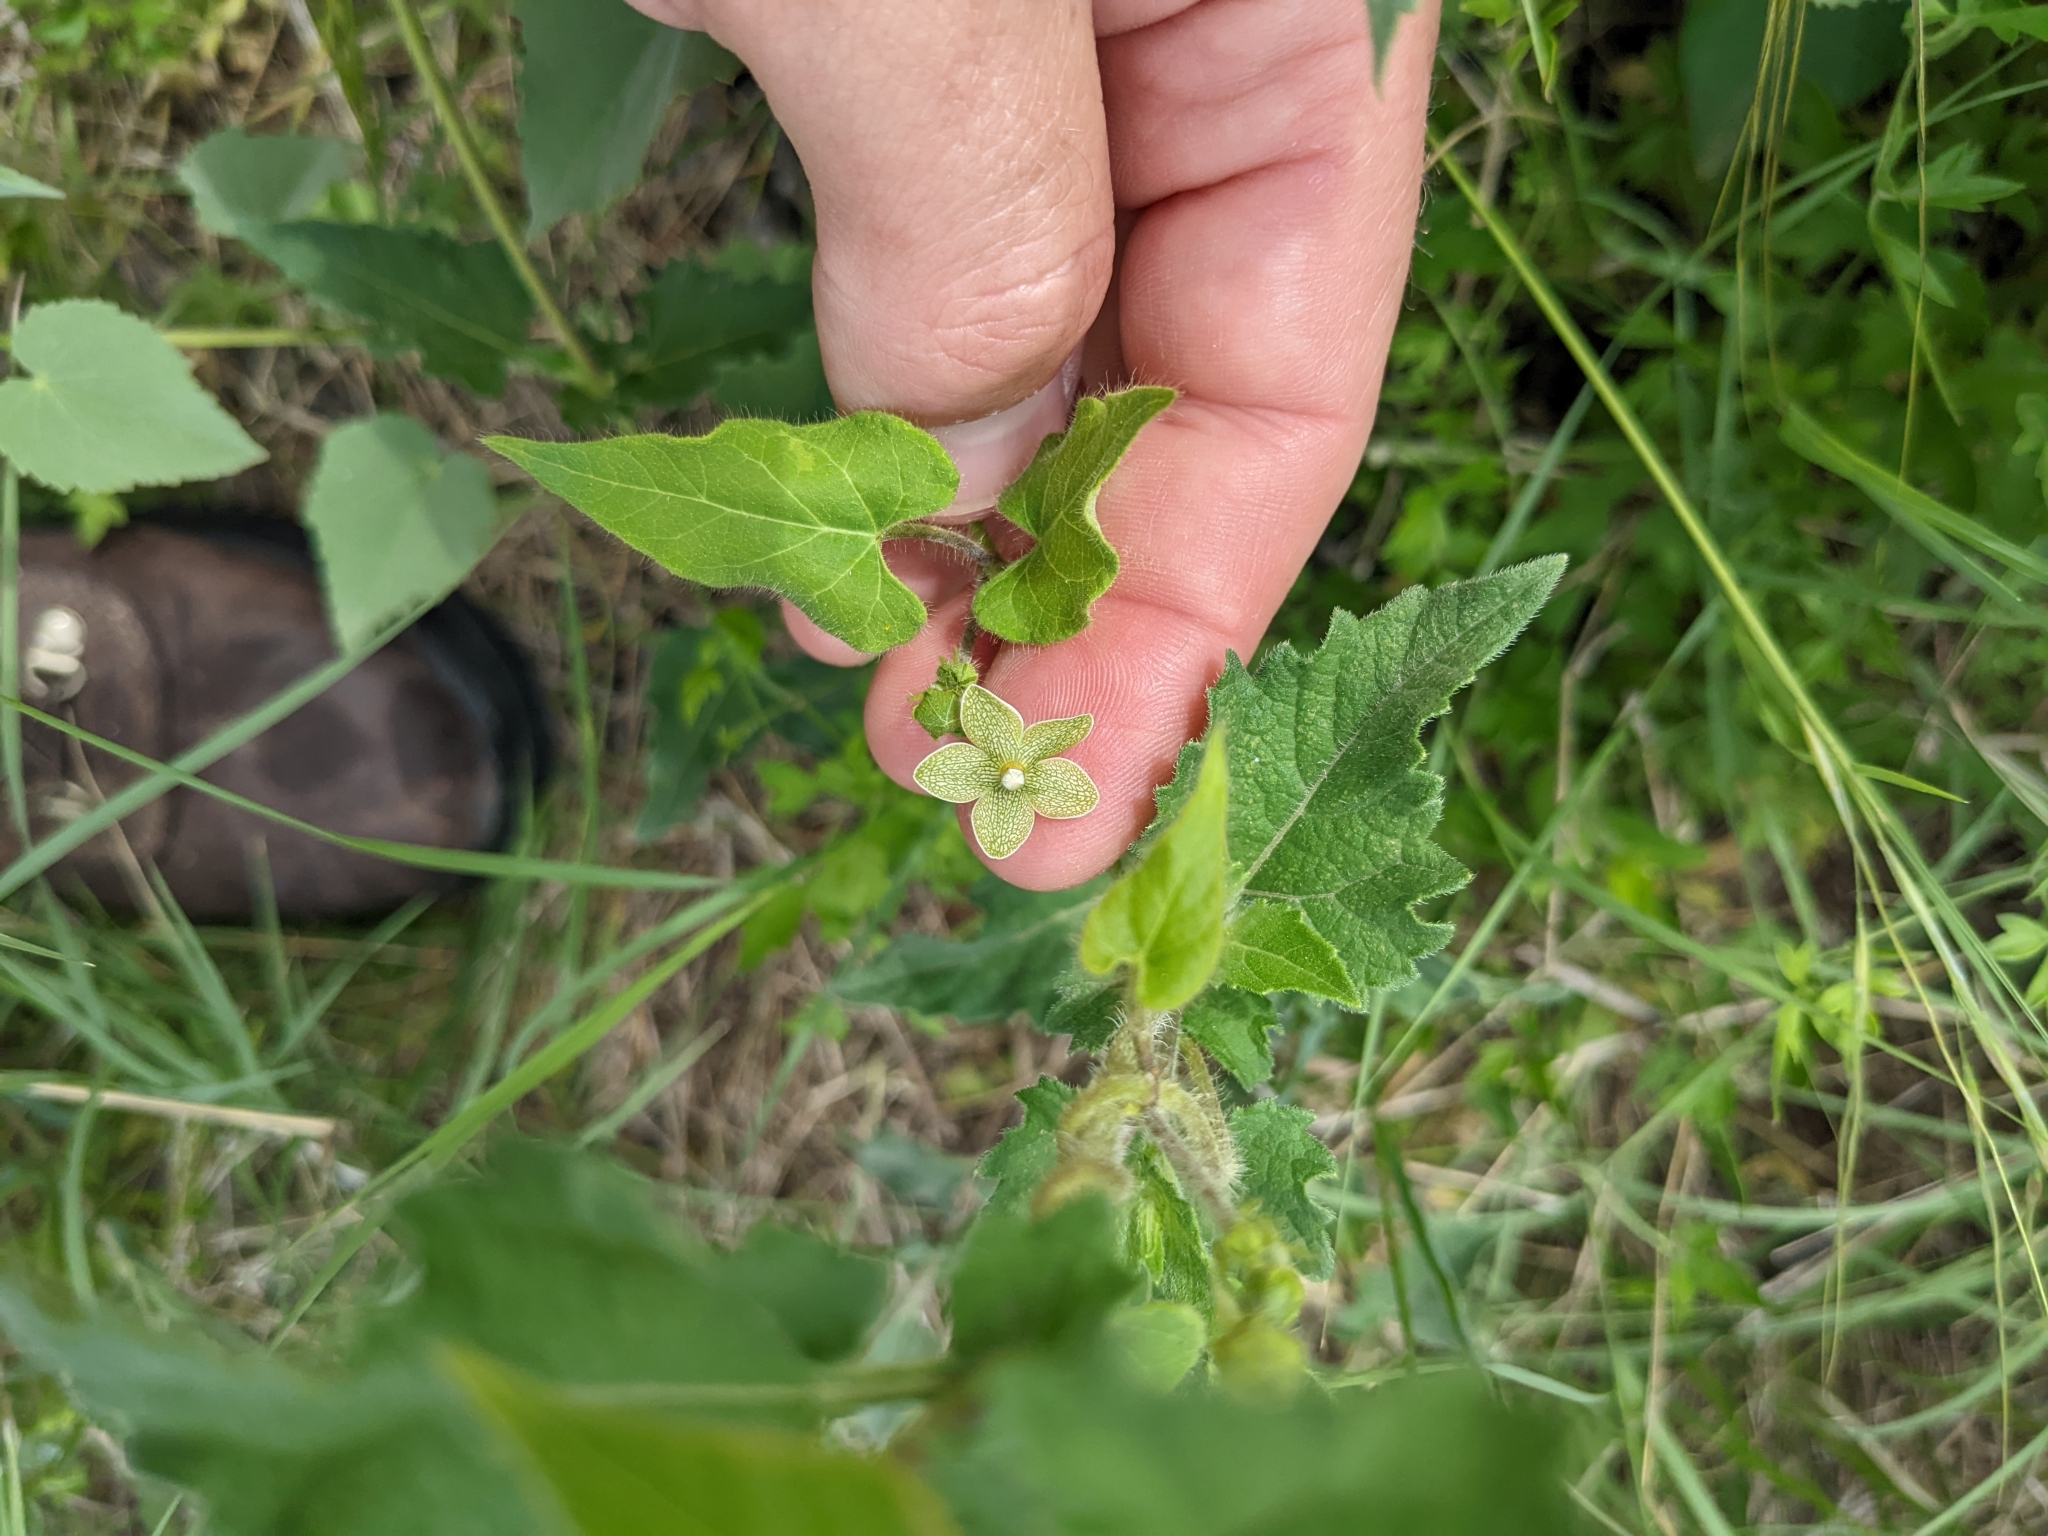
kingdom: Plantae
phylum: Tracheophyta
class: Magnoliopsida
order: Gentianales
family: Apocynaceae
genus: Dictyanthus
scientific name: Dictyanthus reticulatus
